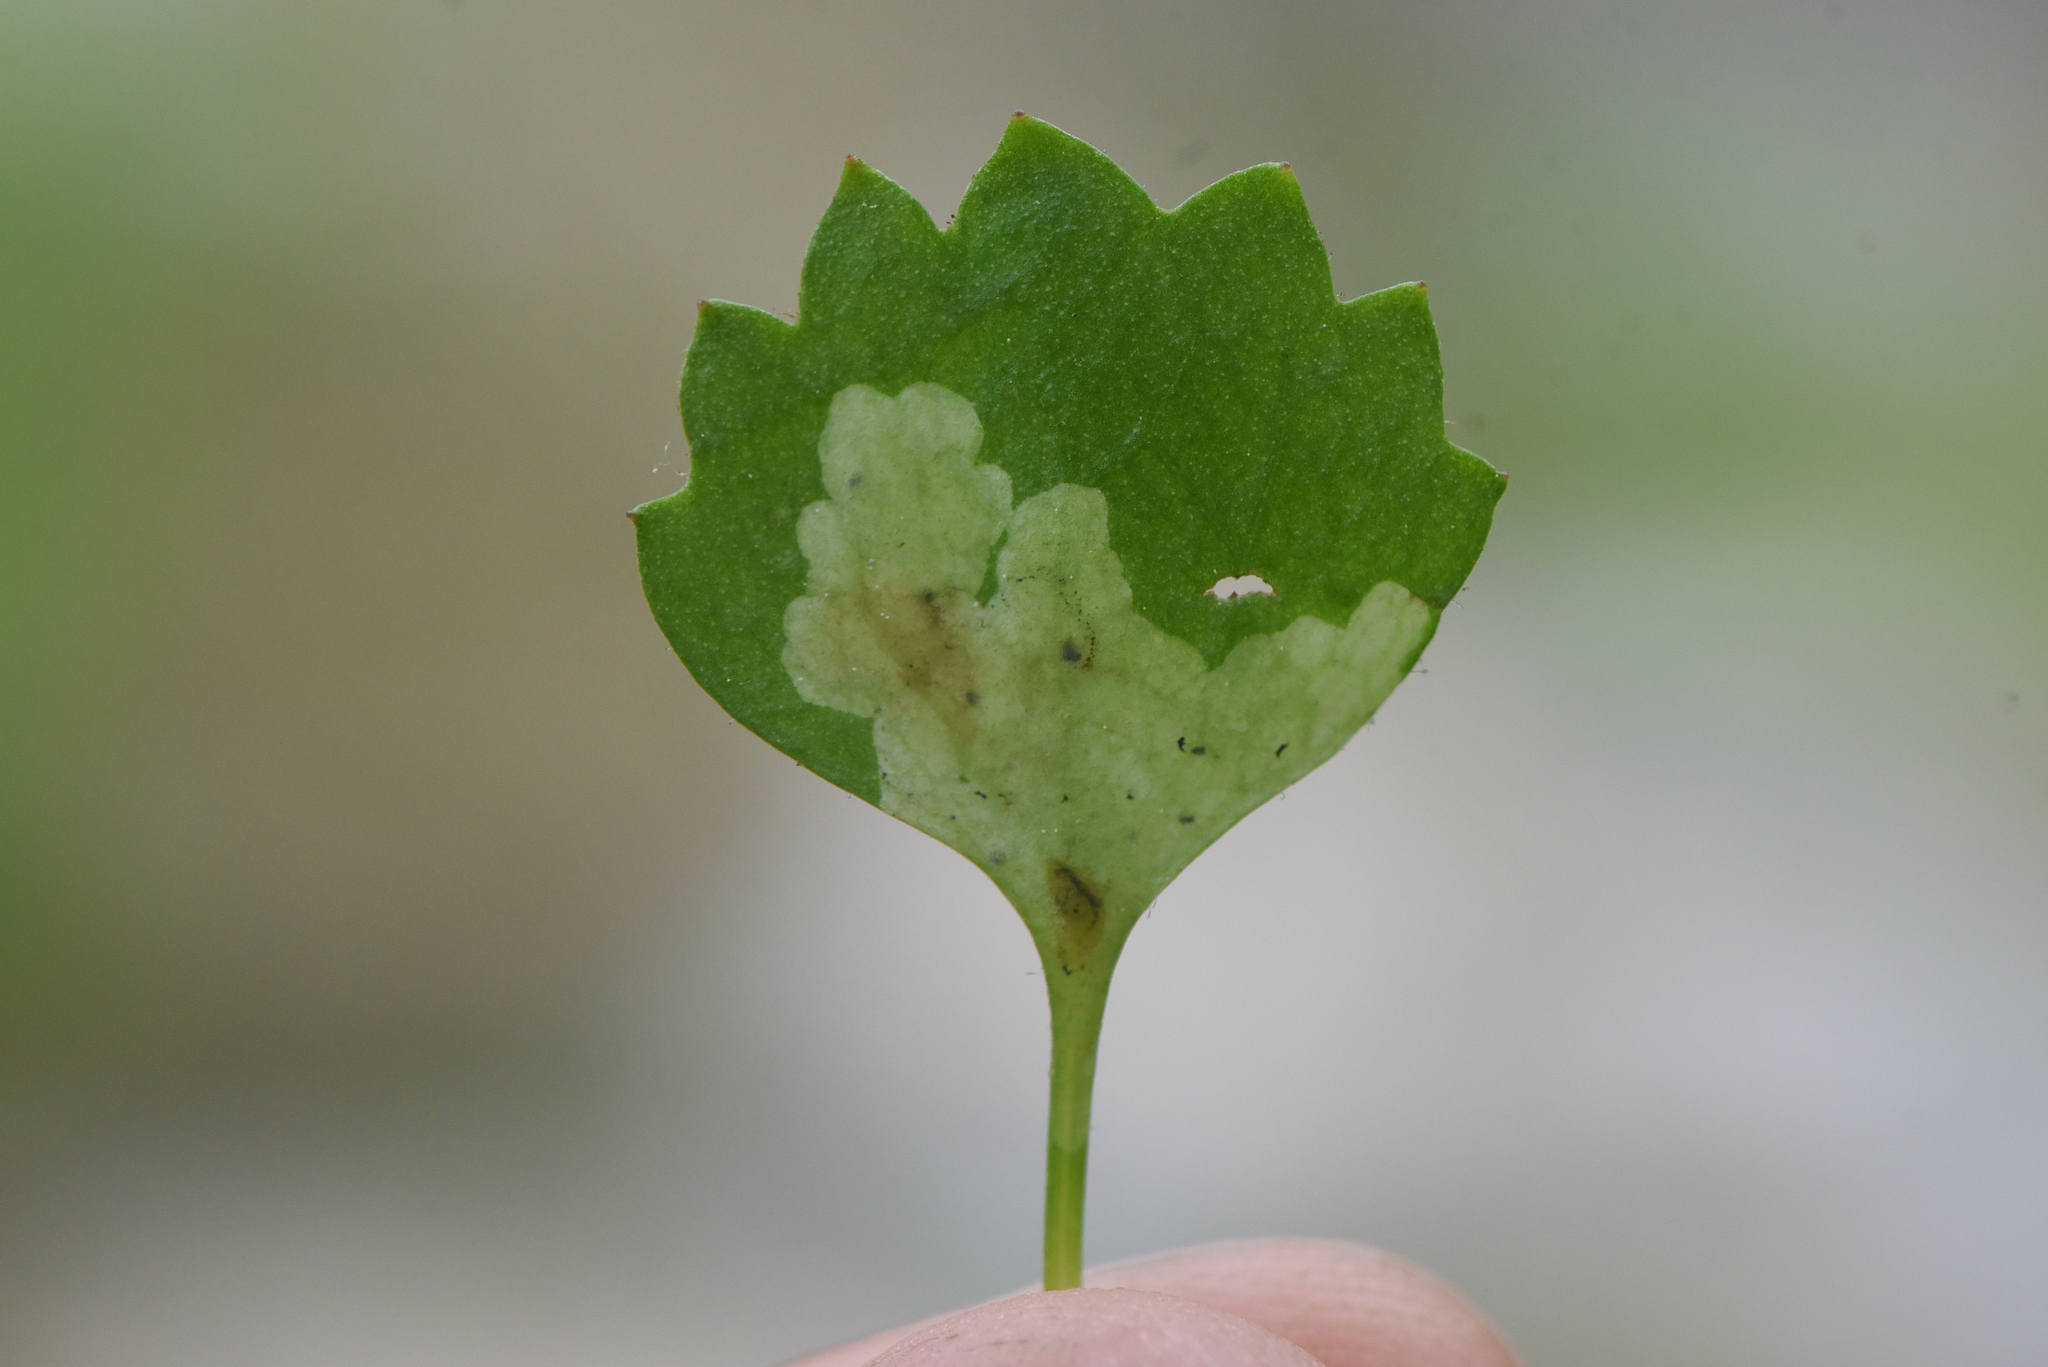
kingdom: Animalia
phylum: Arthropoda
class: Insecta
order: Diptera
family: Agromyzidae
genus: Phytomyza
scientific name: Phytomyza deirdreae
